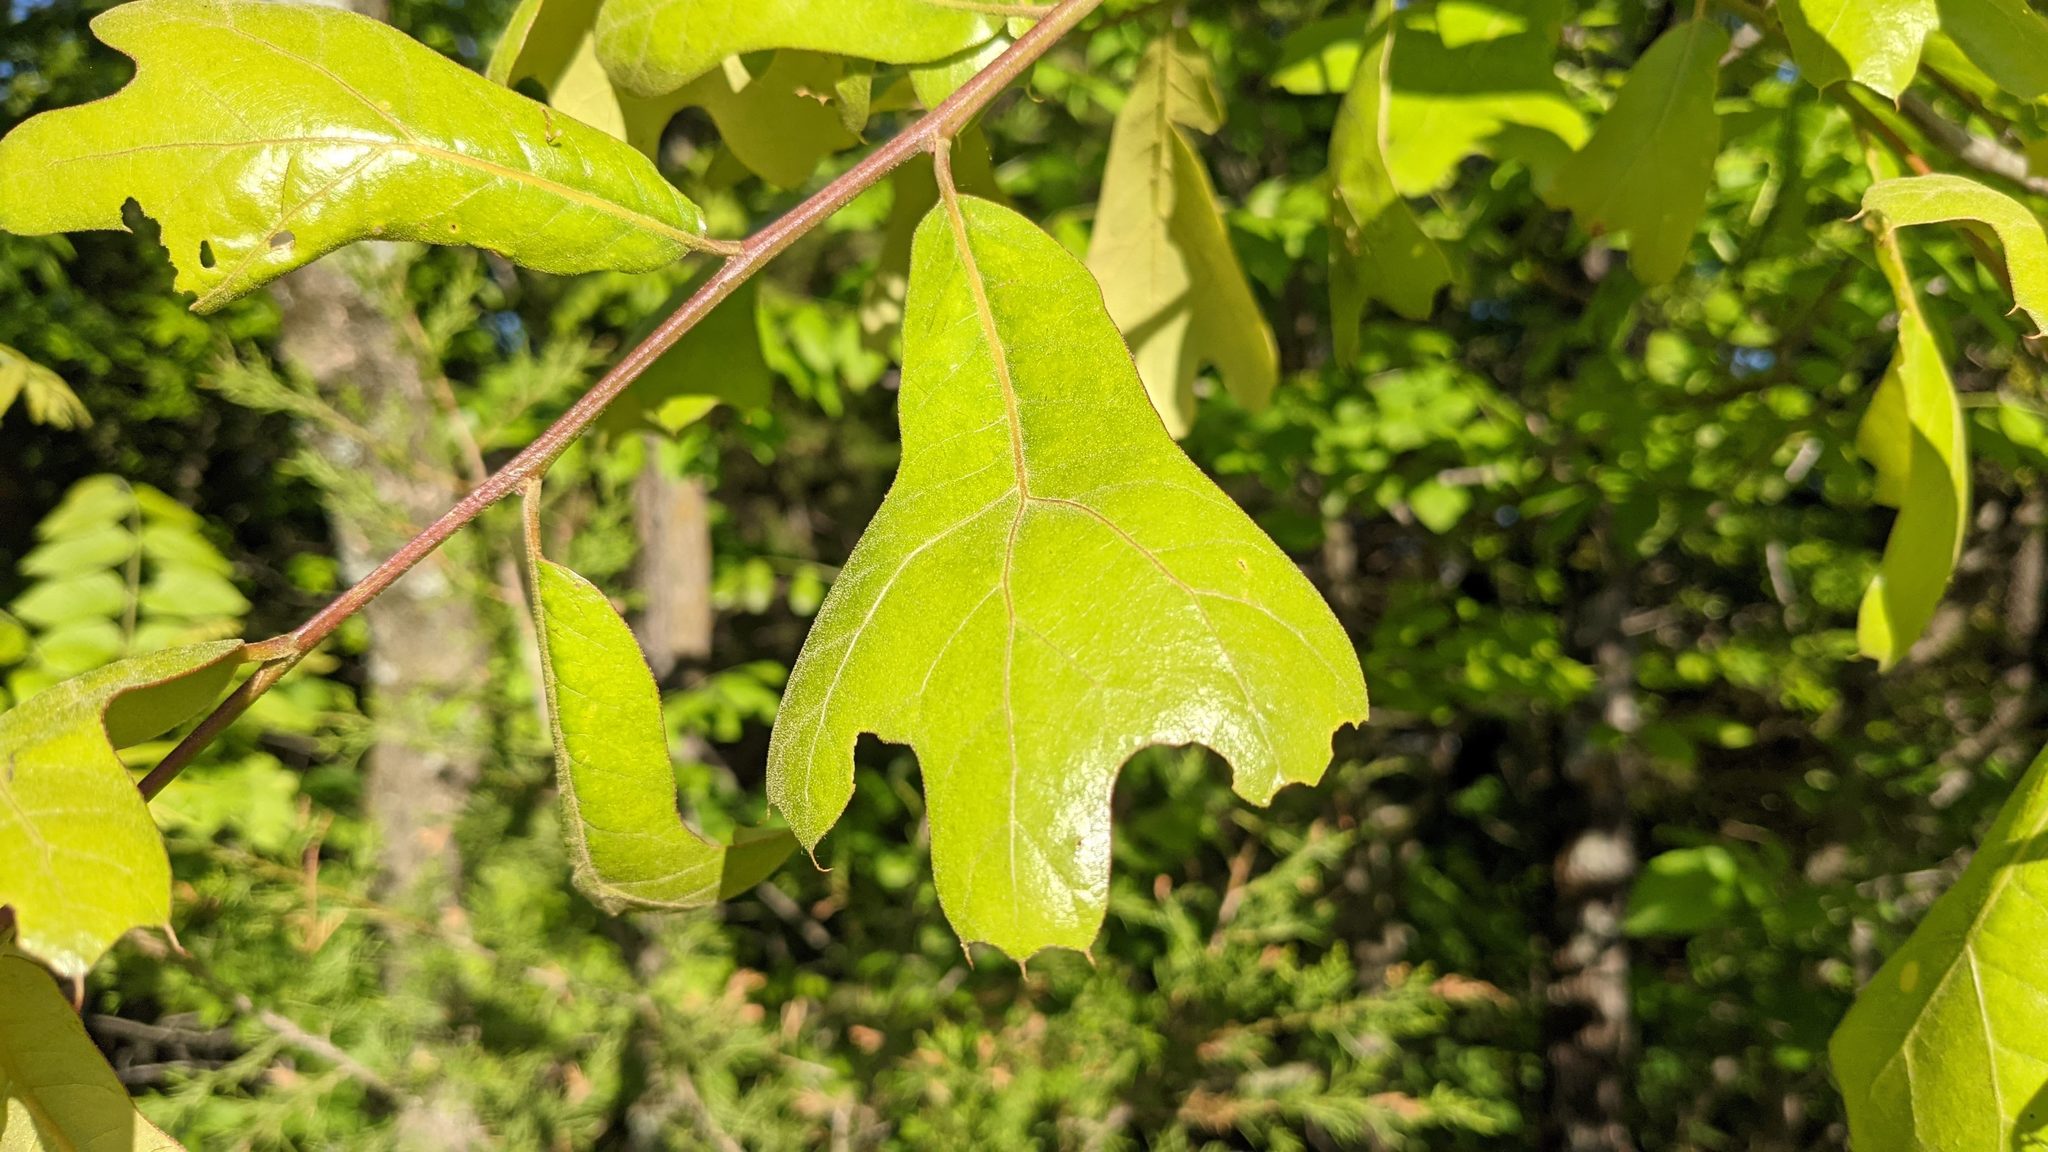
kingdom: Plantae
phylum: Tracheophyta
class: Magnoliopsida
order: Fagales
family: Fagaceae
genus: Quercus
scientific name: Quercus marilandica
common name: Blackjack oak
